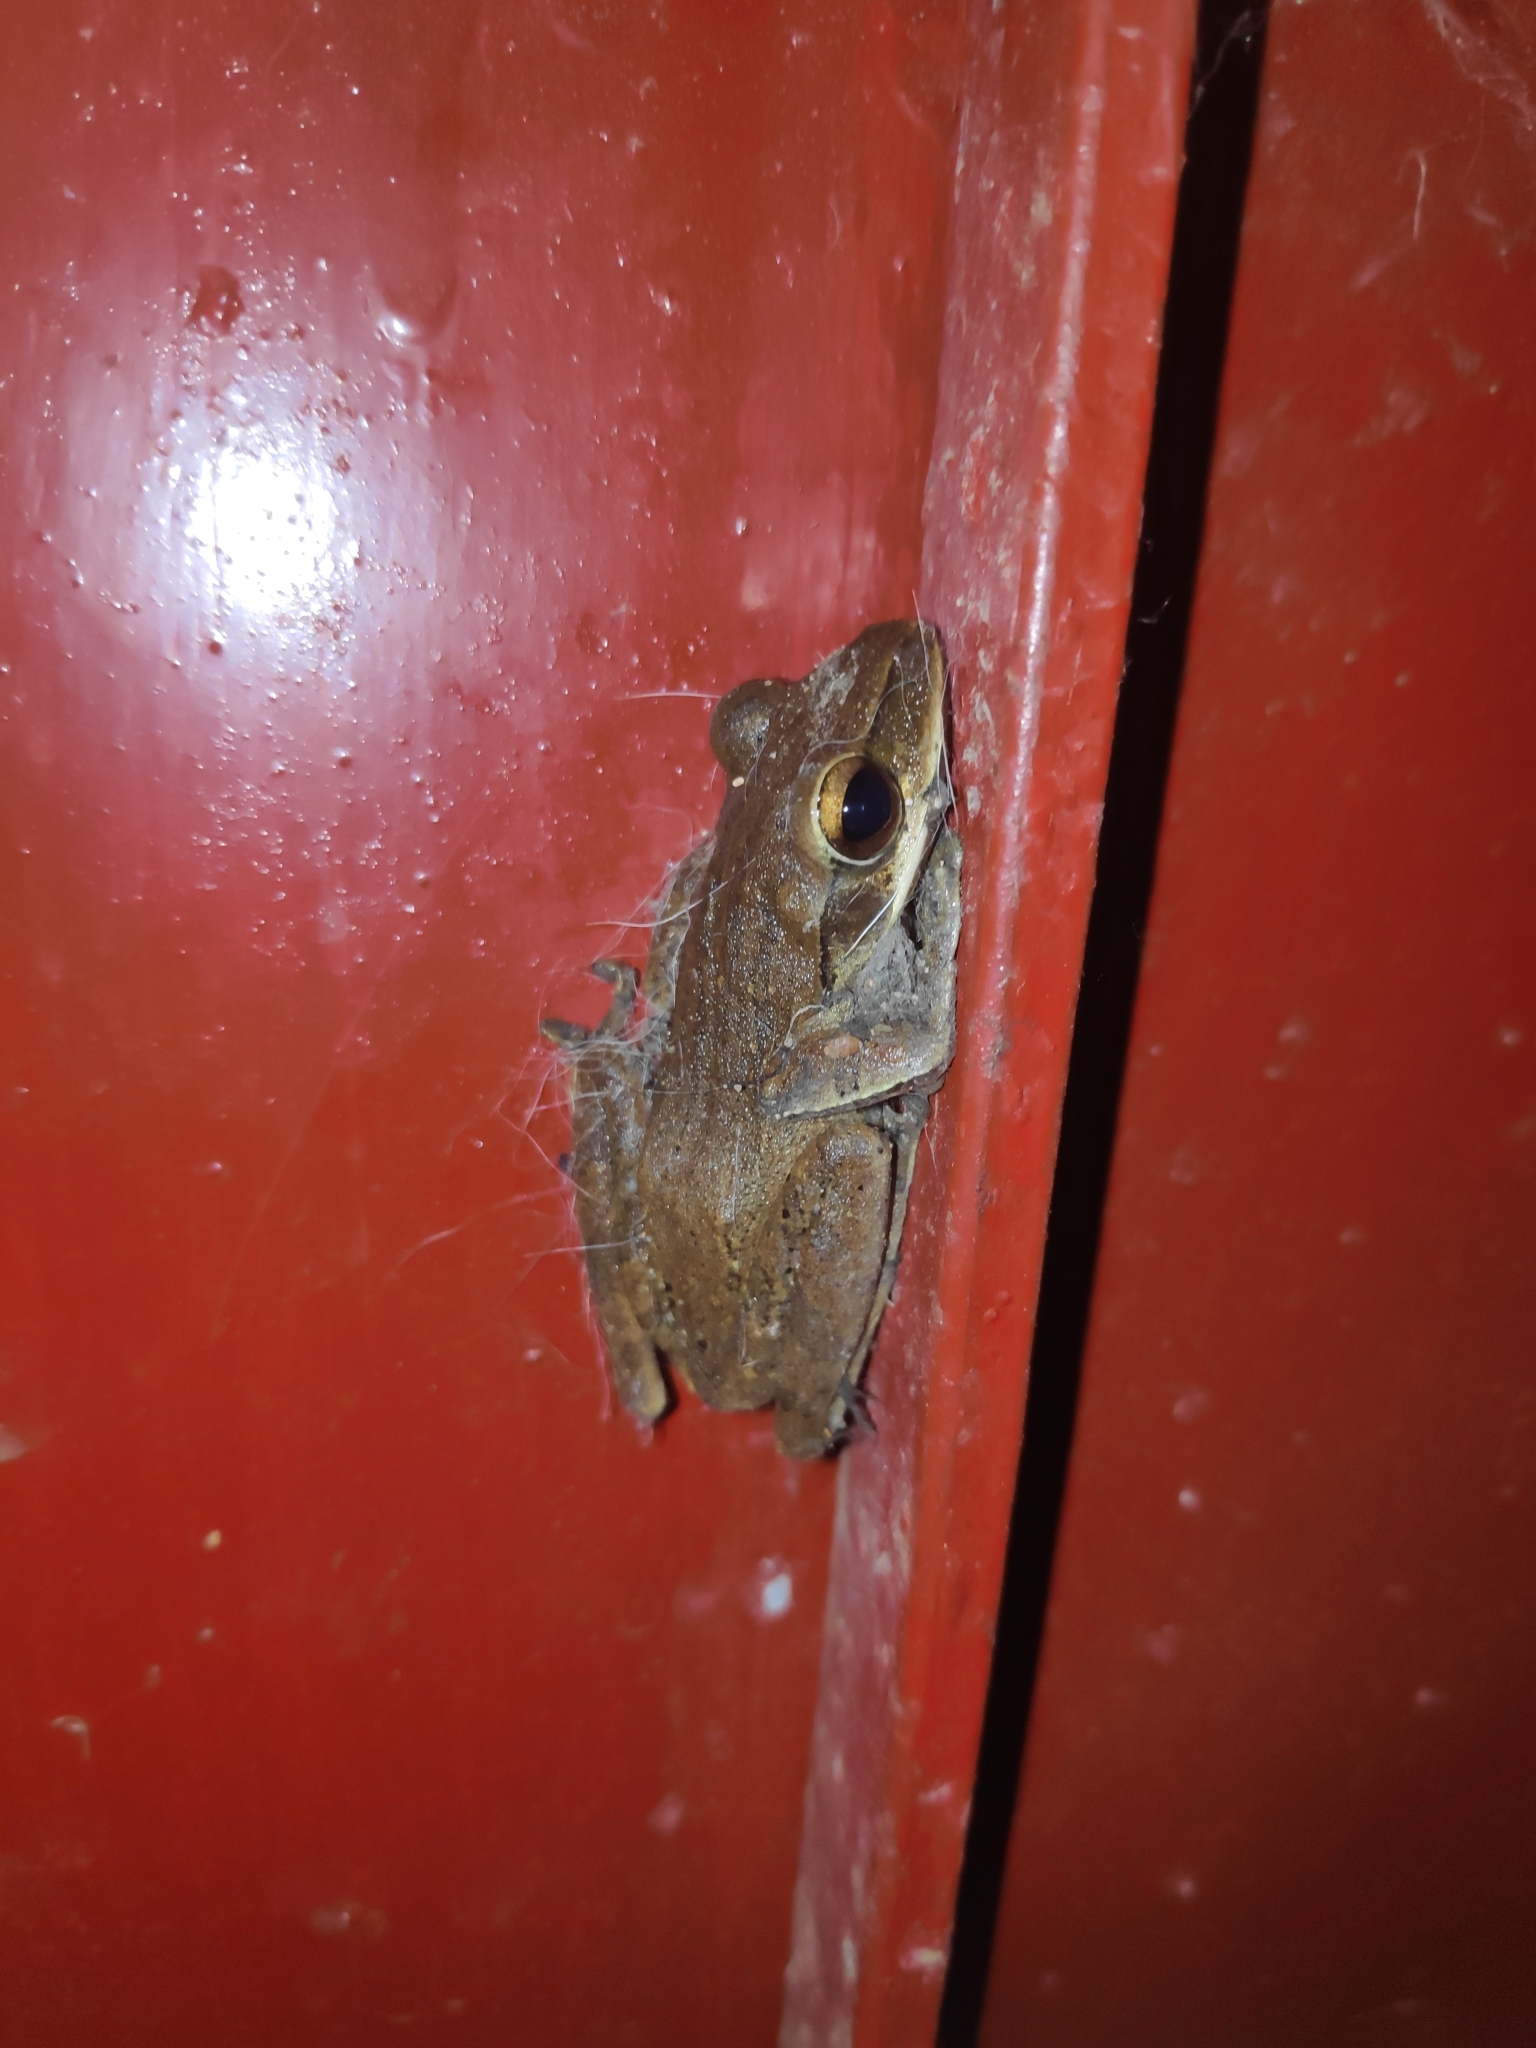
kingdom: Animalia
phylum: Chordata
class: Amphibia
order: Anura
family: Rhacophoridae
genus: Polypedates
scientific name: Polypedates leucomystax
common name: Common tree frog/four-lined tree frog
